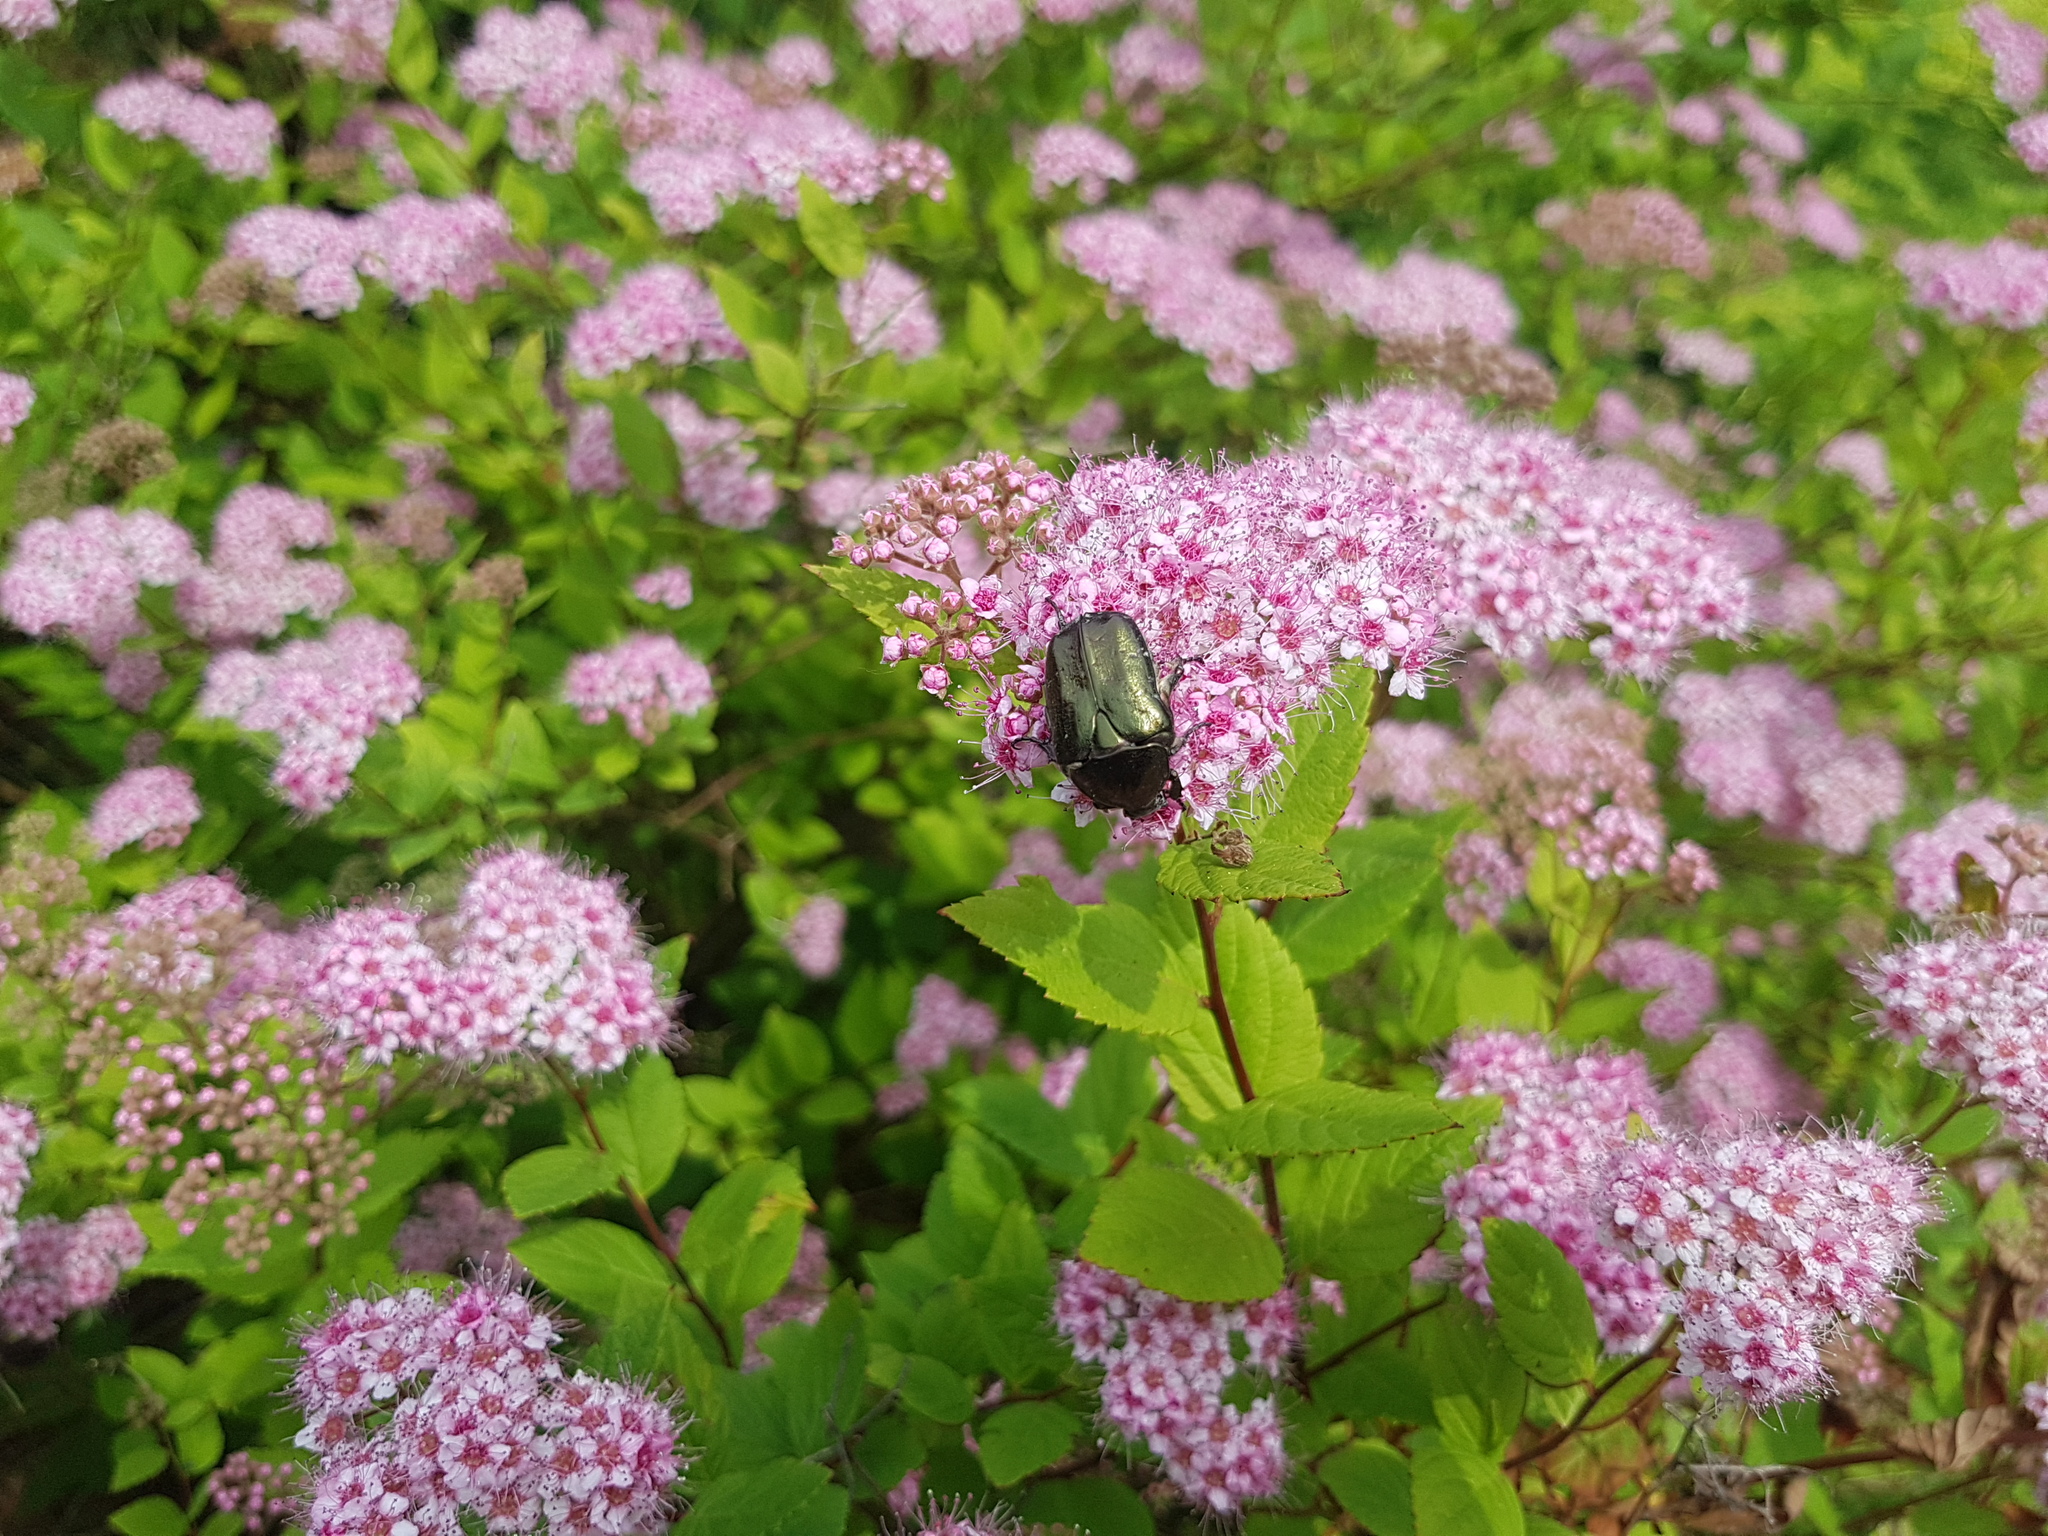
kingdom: Animalia
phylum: Arthropoda
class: Insecta
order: Coleoptera
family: Scarabaeidae
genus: Protaetia
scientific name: Protaetia cuprea
